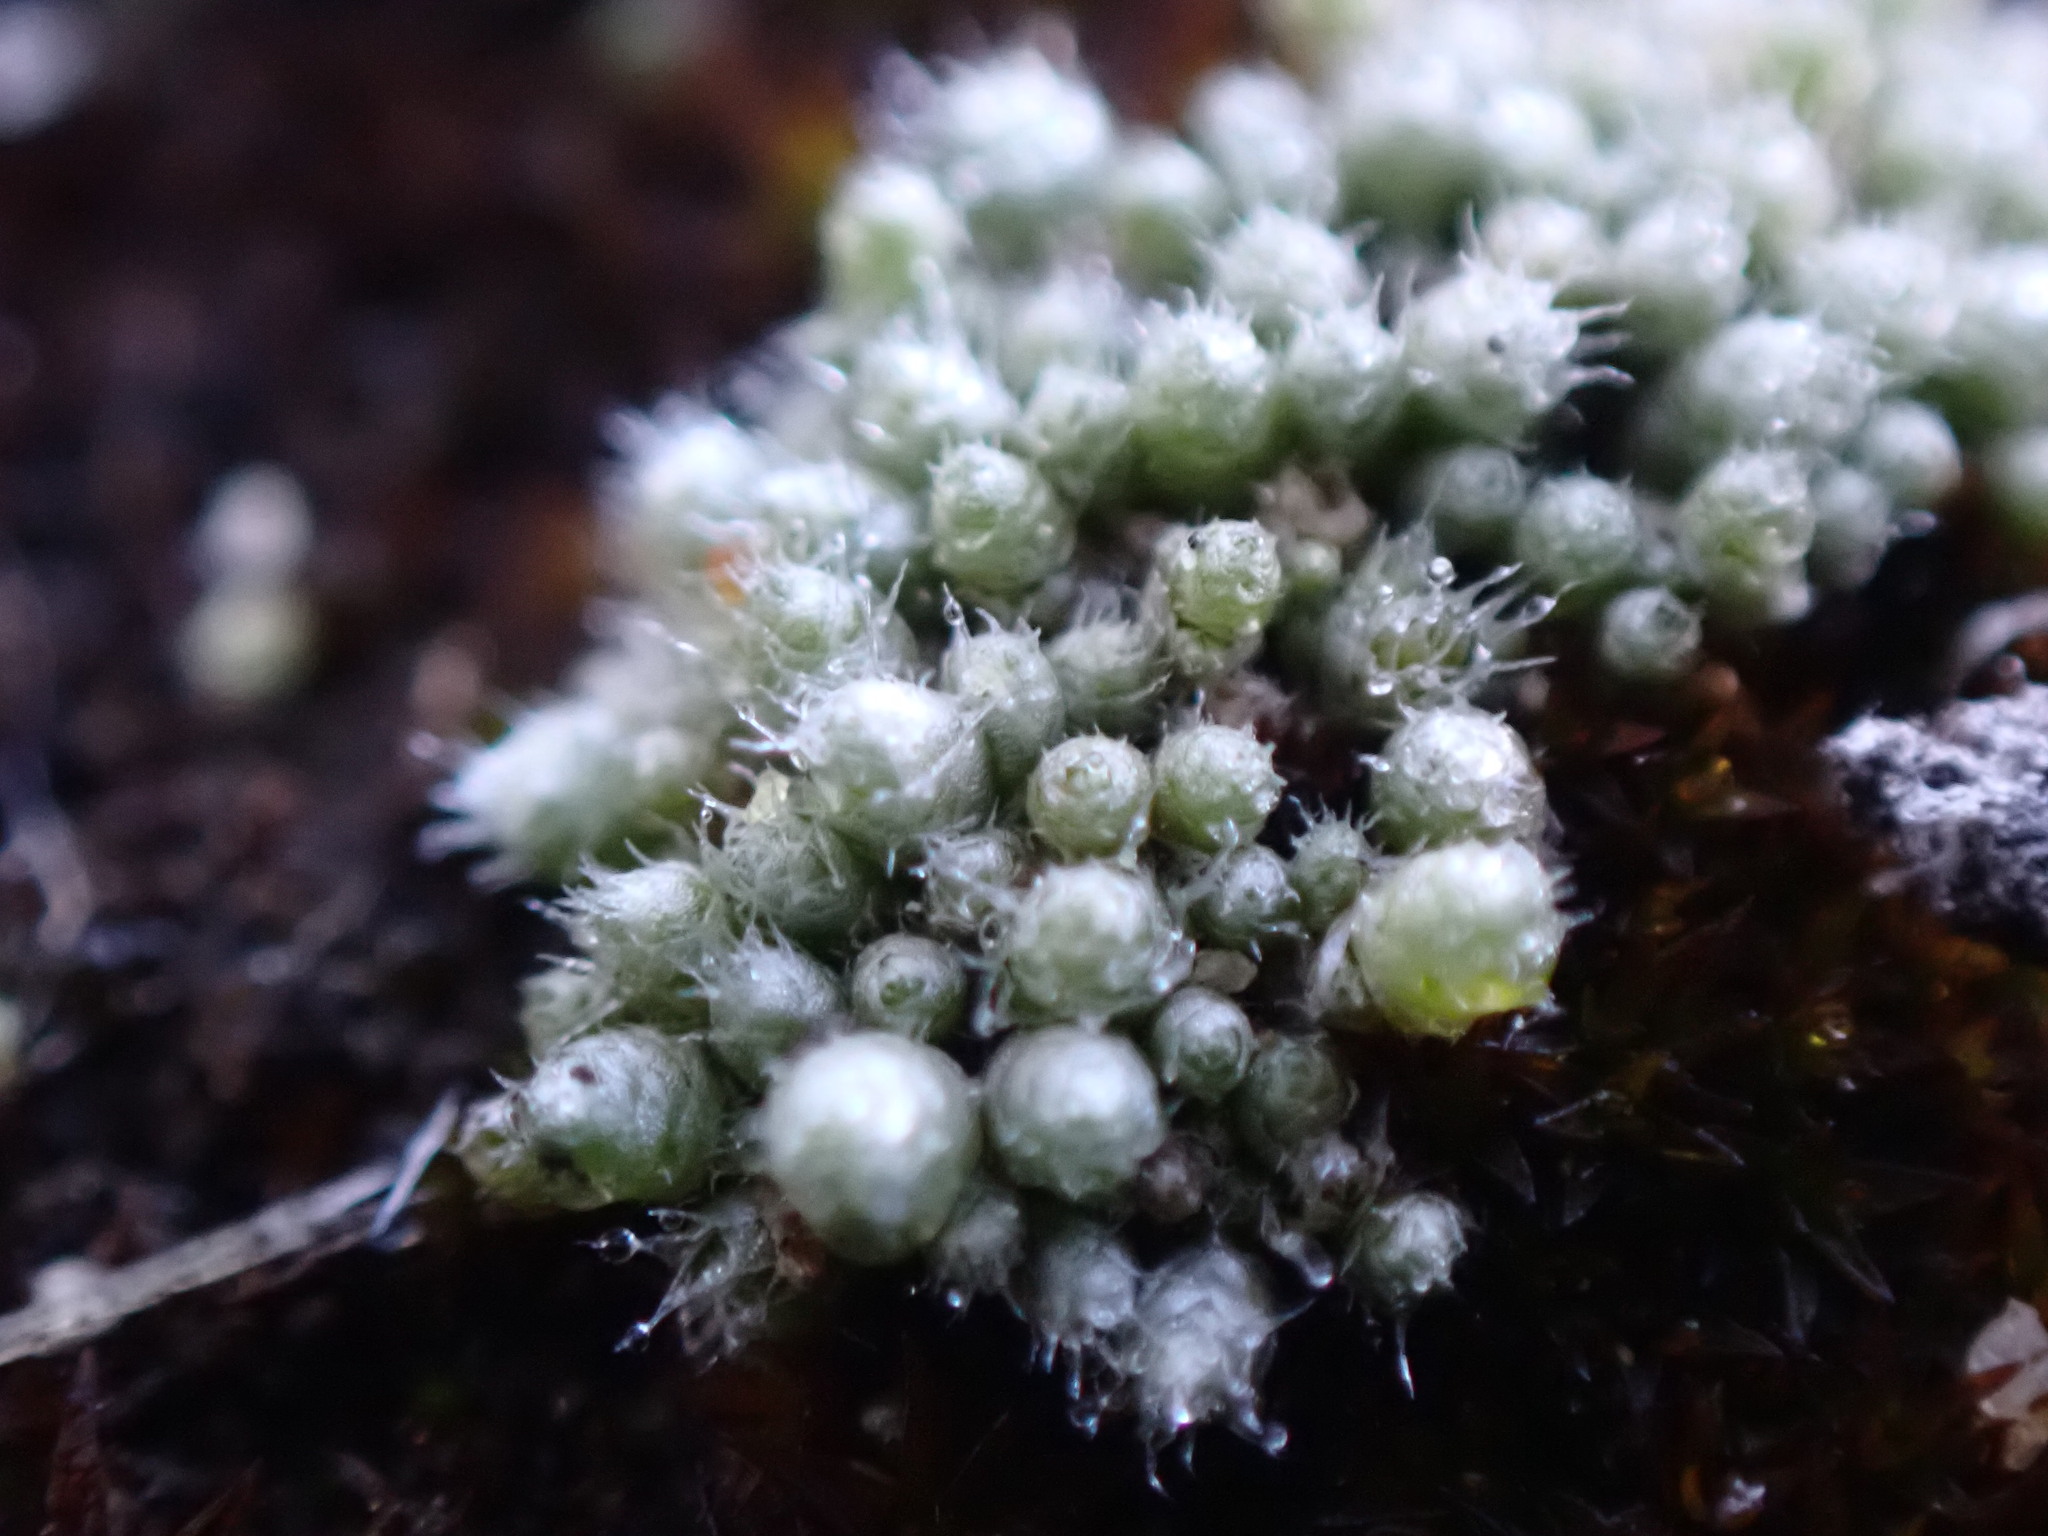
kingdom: Plantae
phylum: Bryophyta
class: Bryopsida
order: Bryales
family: Bryaceae
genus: Bryum
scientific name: Bryum argenteum
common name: Silver-moss
